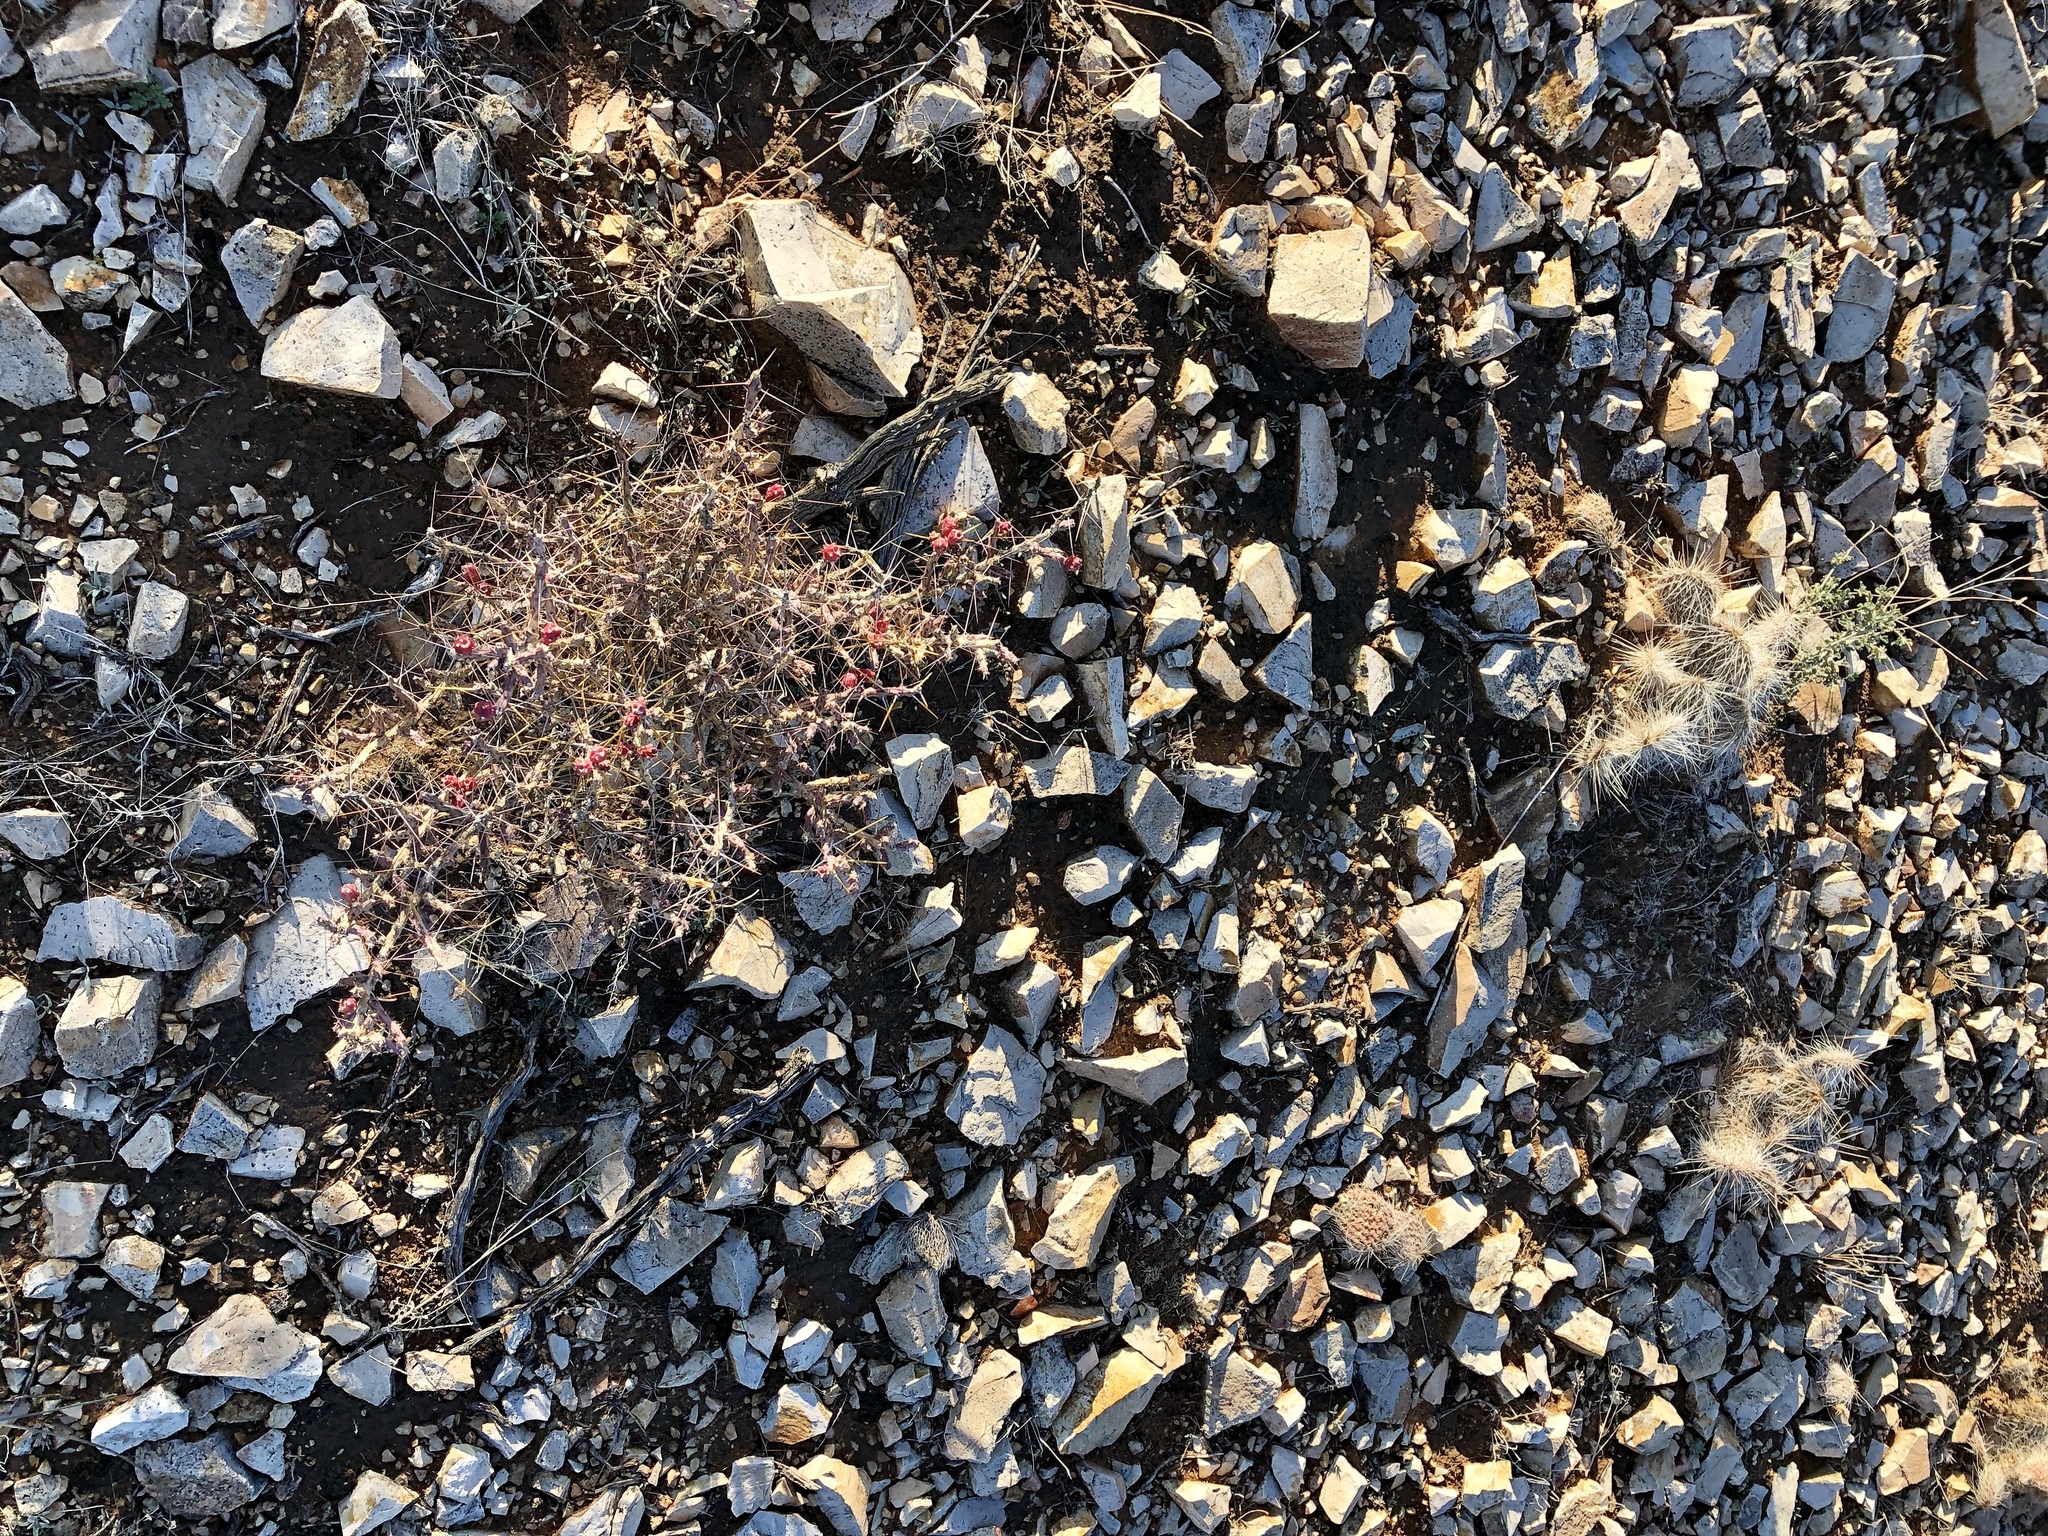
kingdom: Plantae
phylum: Tracheophyta
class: Magnoliopsida
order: Caryophyllales
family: Cactaceae
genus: Opuntia
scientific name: Opuntia polyacantha
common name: Plains prickly-pear
